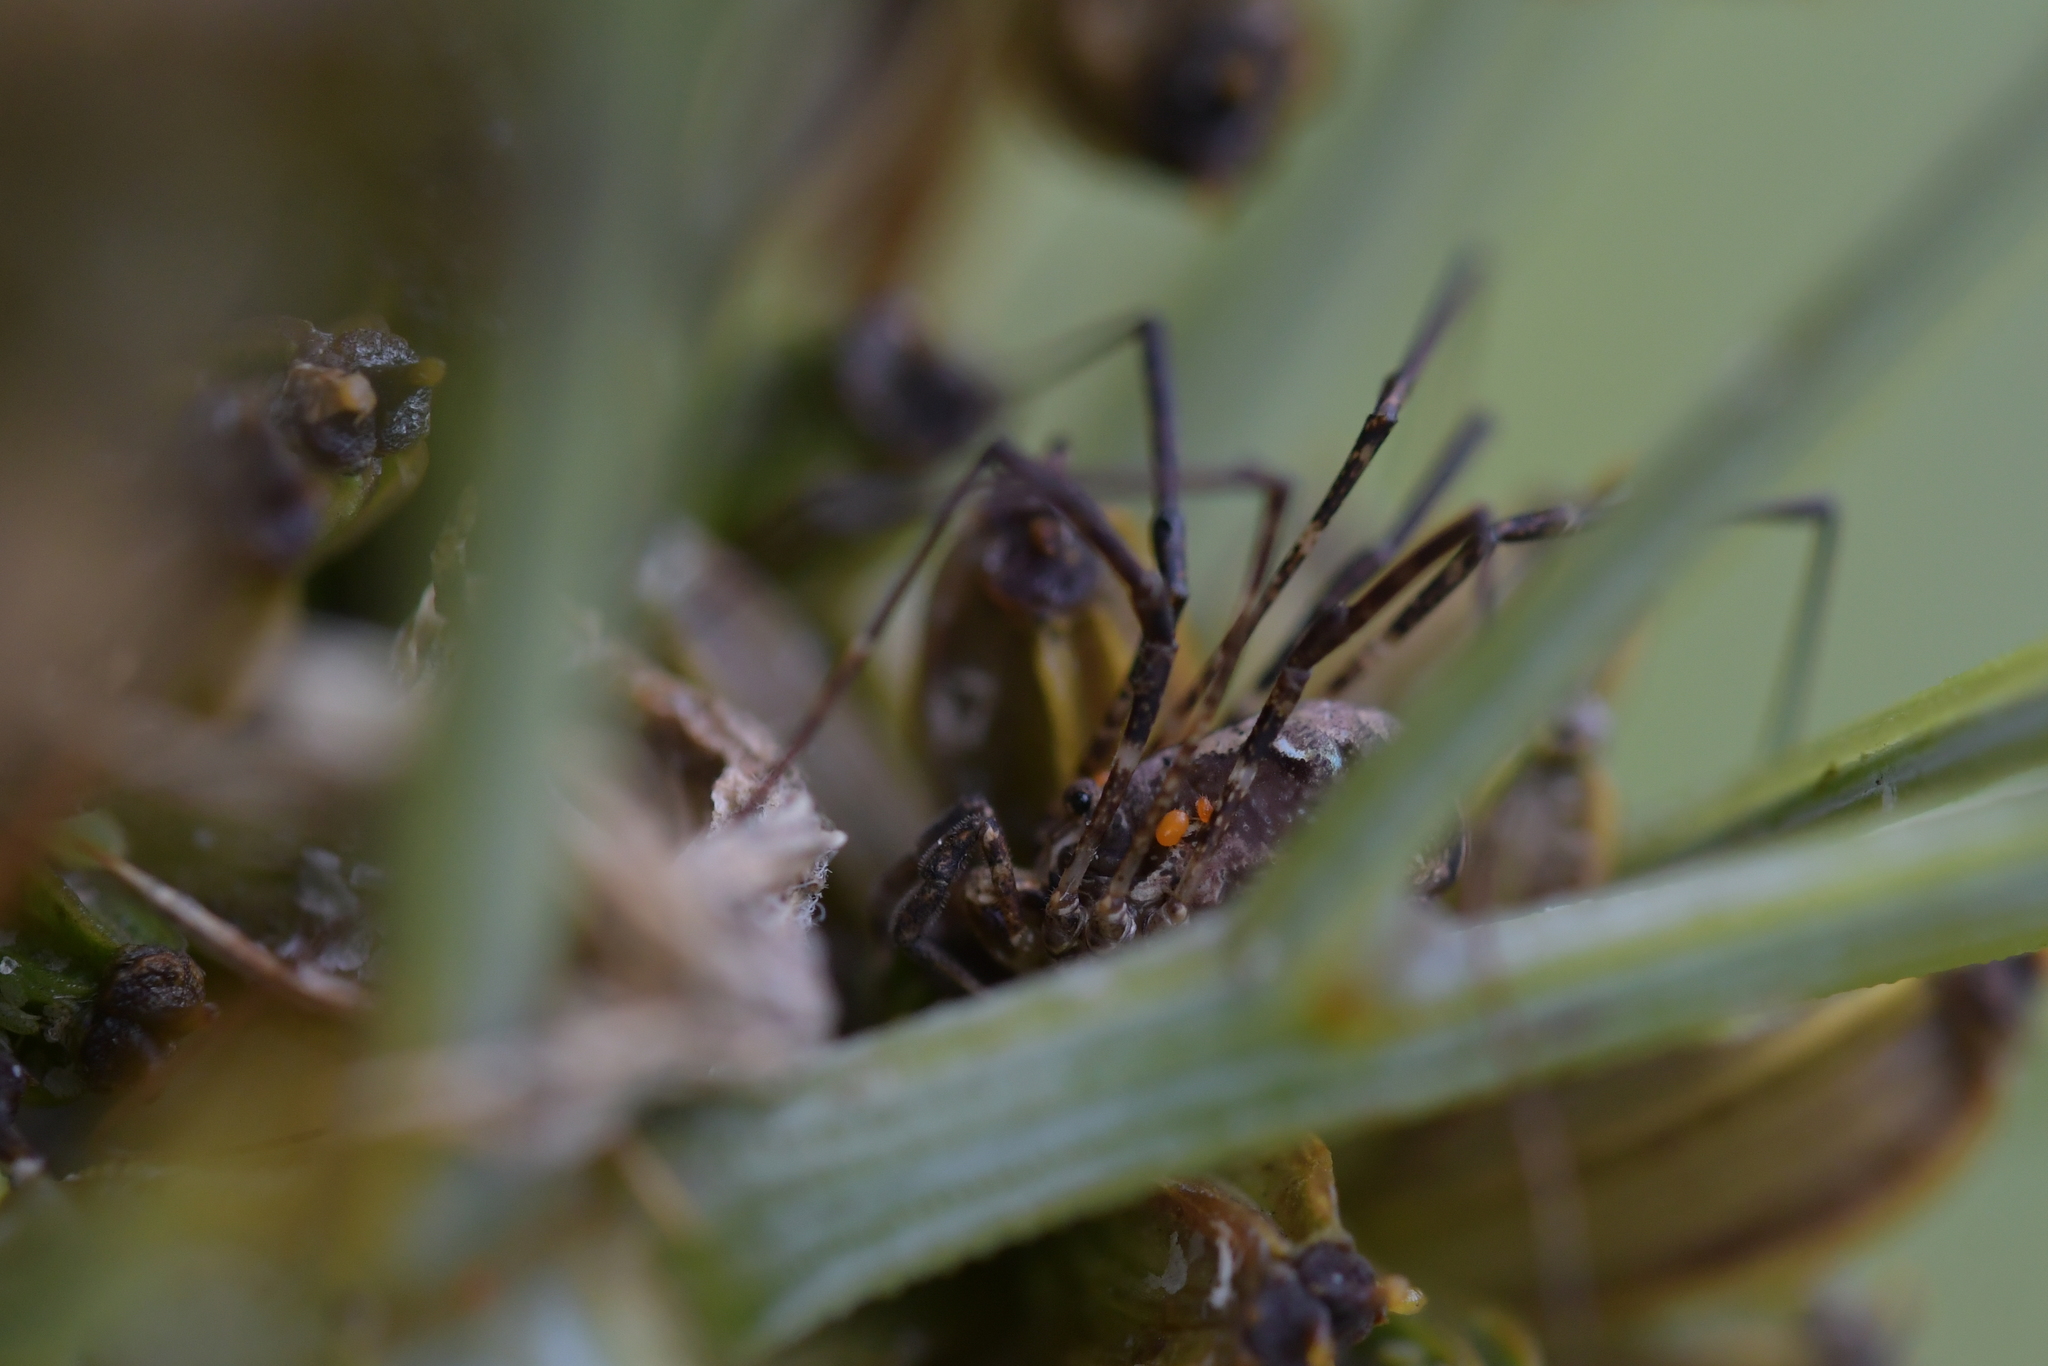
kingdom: Animalia
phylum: Arthropoda
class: Arachnida
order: Opiliones
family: Neopilionidae
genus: Pantopsalis
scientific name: Pantopsalis listeri
